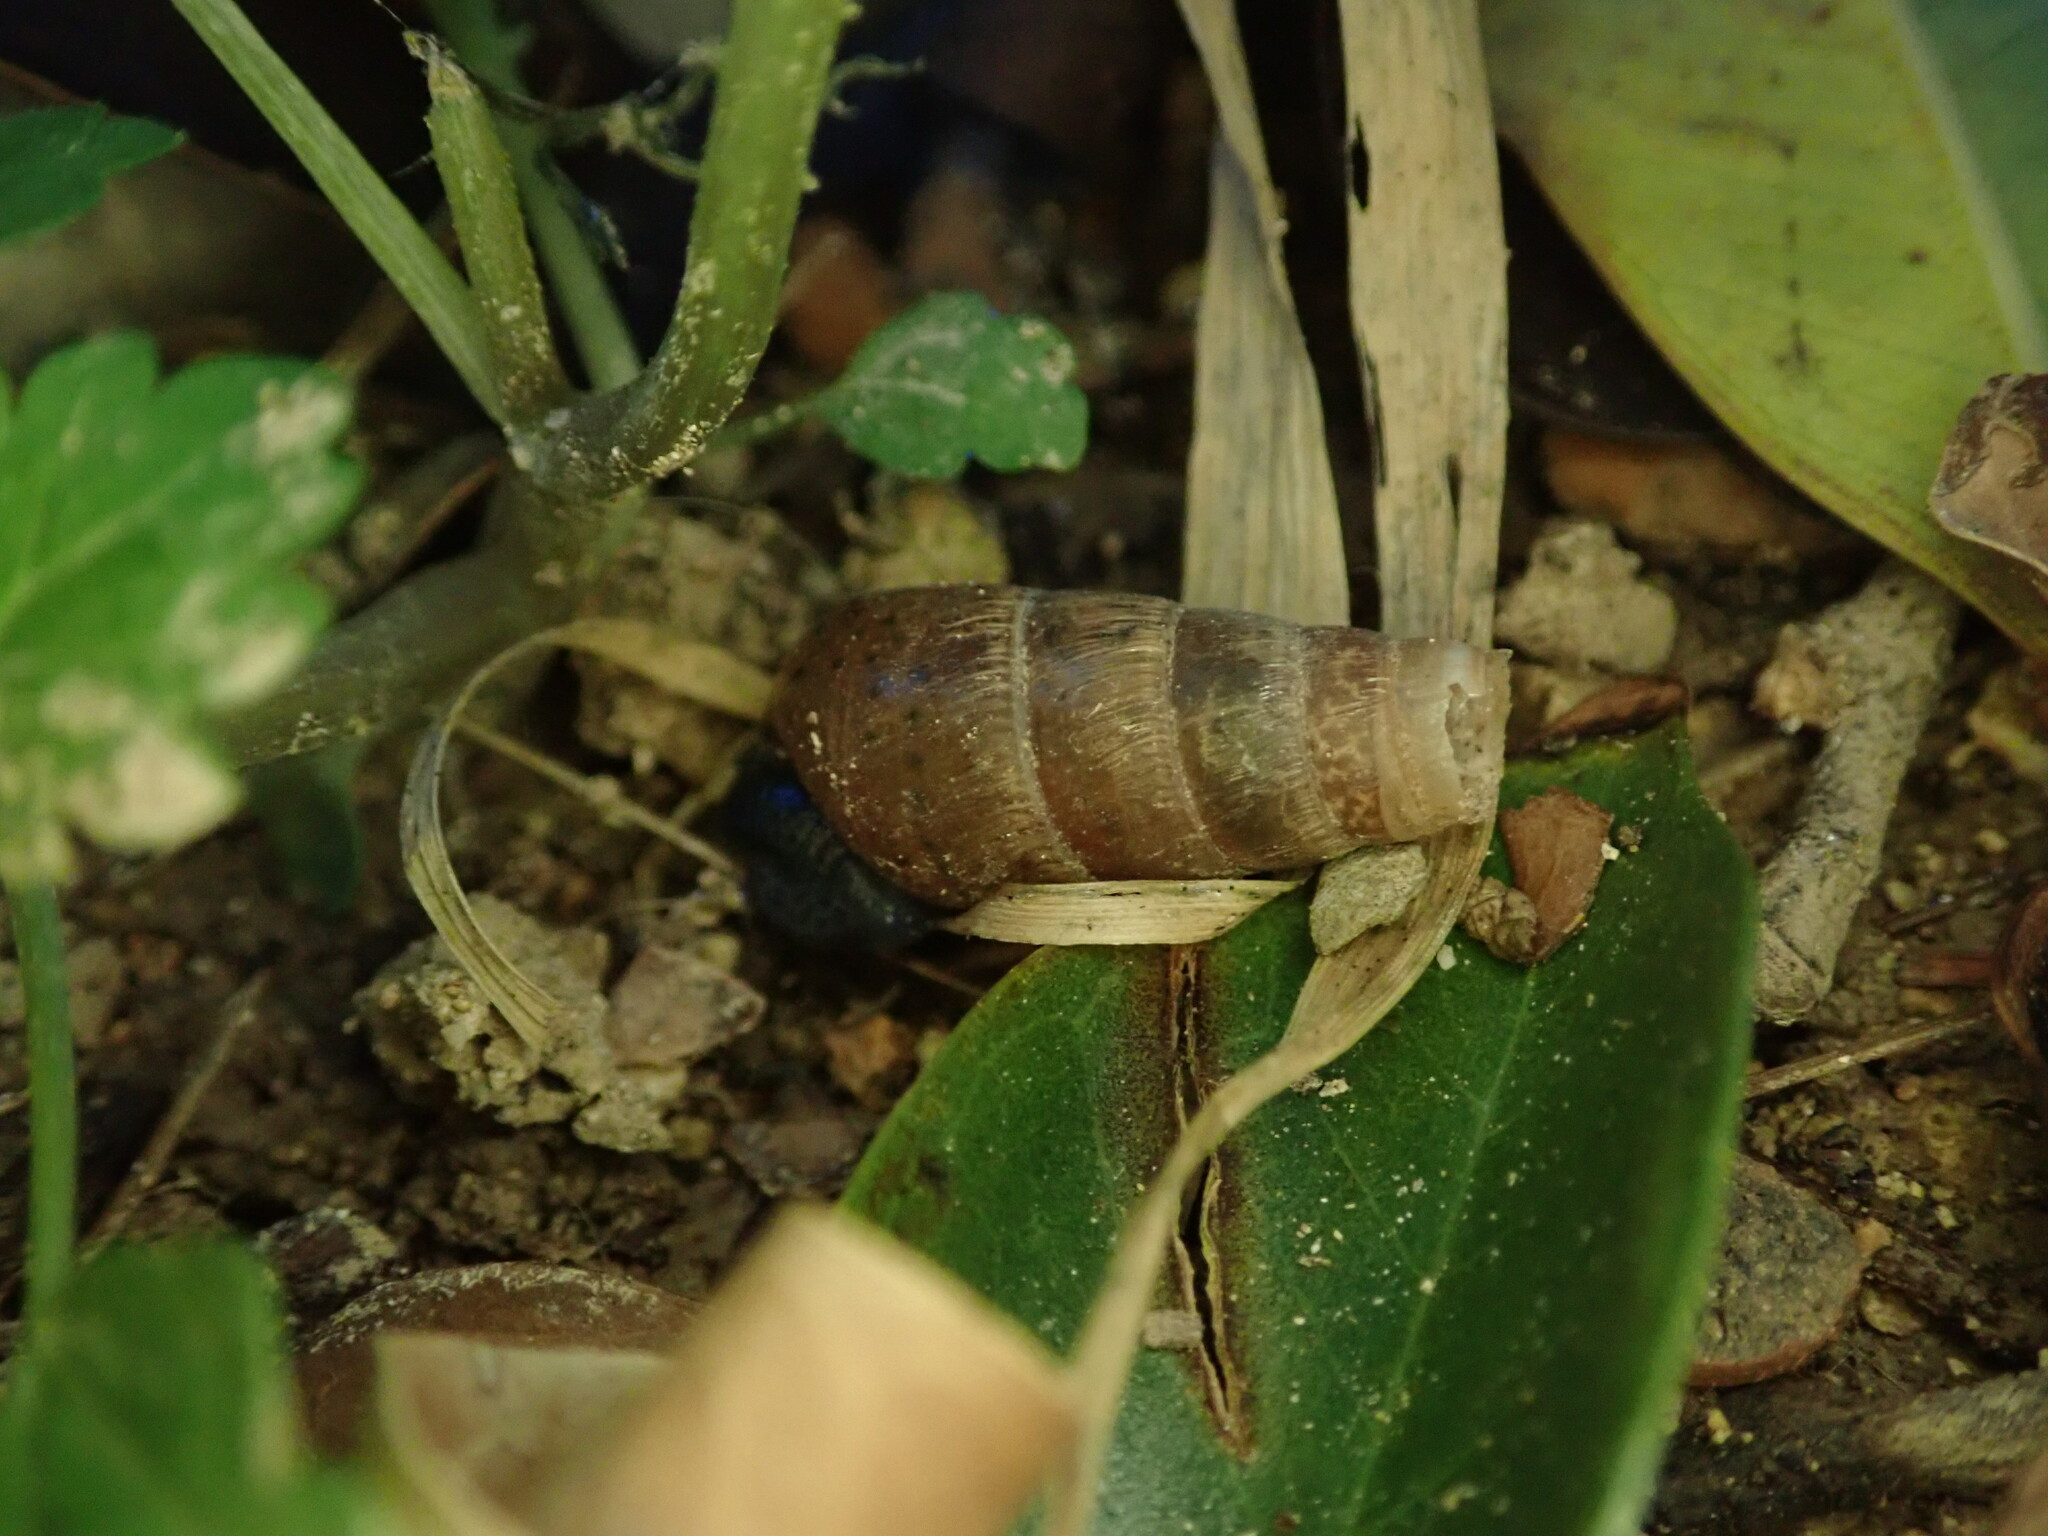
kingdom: Animalia
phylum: Mollusca
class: Gastropoda
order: Stylommatophora
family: Achatinidae
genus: Rumina
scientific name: Rumina decollata
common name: Decollate snail
